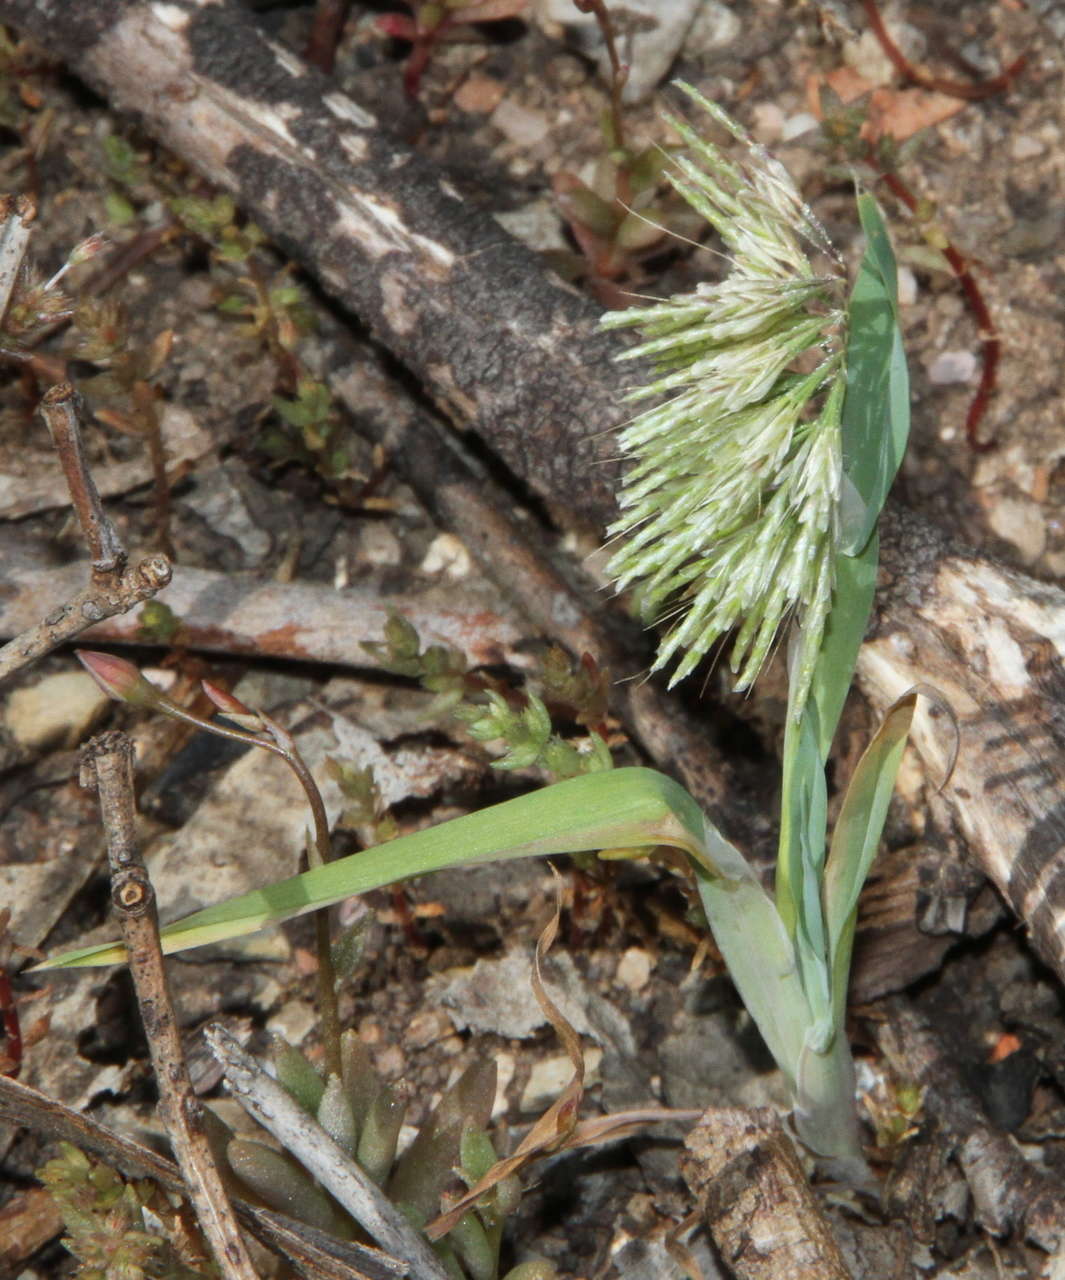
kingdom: Plantae
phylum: Tracheophyta
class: Liliopsida
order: Poales
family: Poaceae
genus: Lamarckia
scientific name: Lamarckia aurea
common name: Golden dog's-tail
